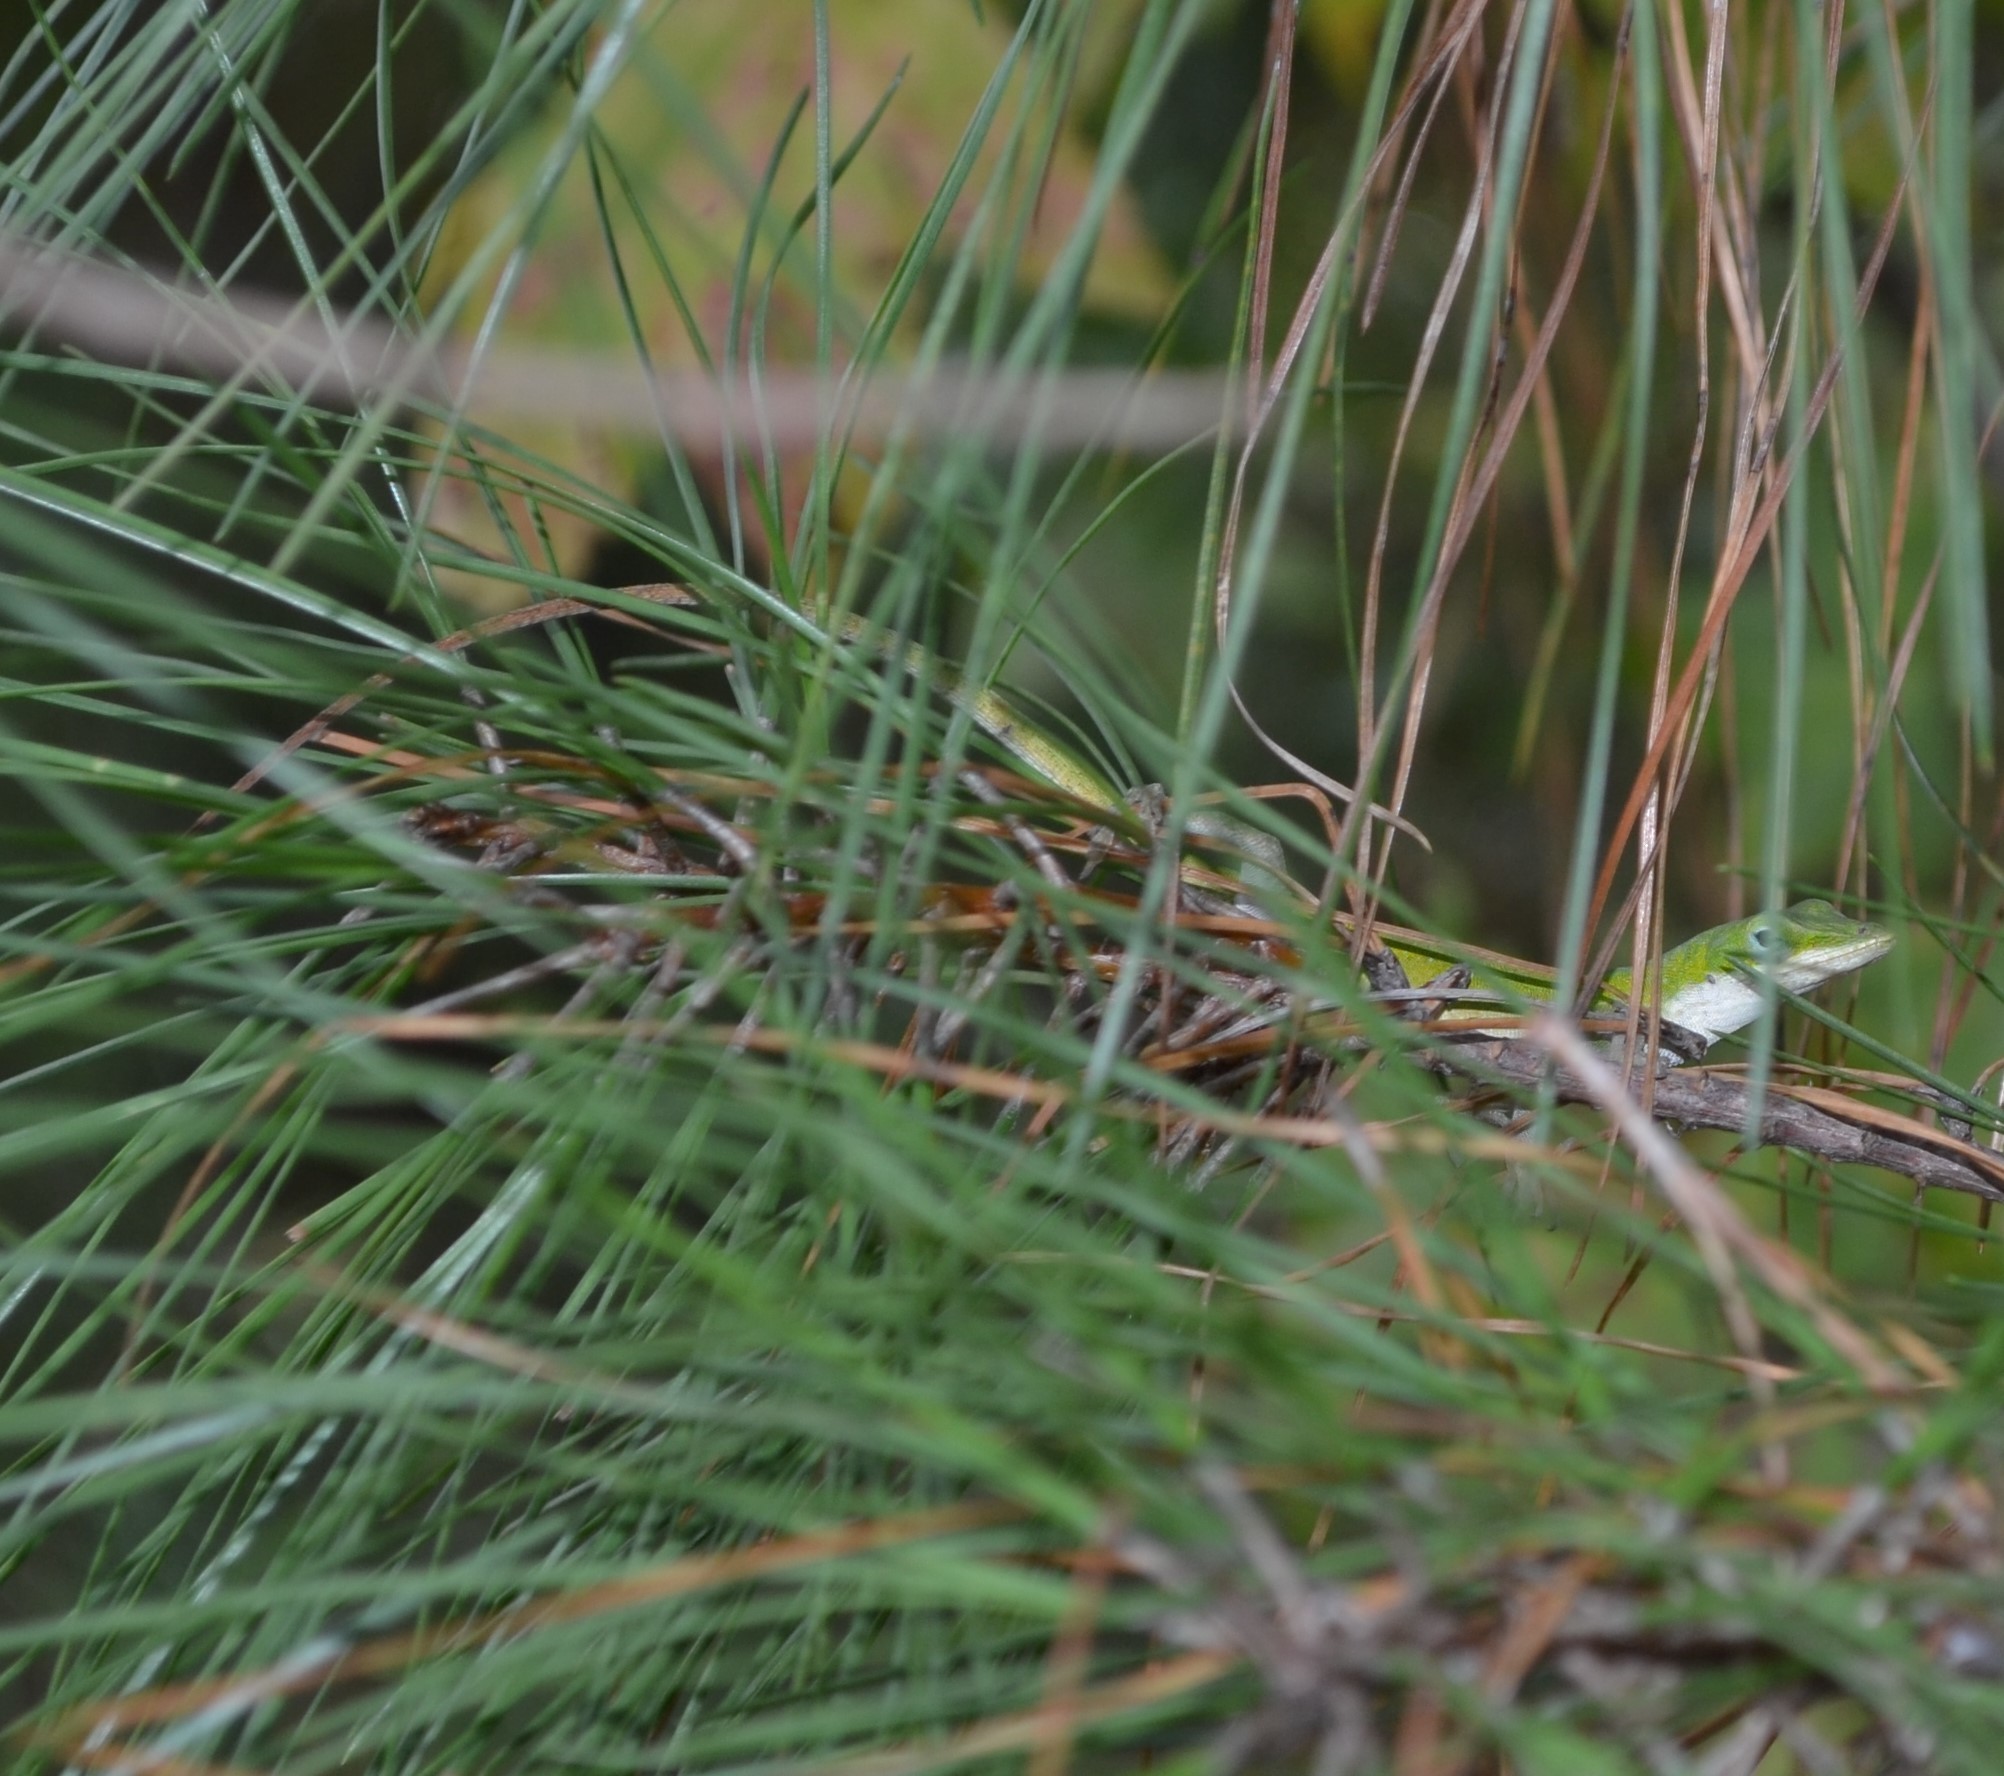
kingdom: Animalia
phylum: Chordata
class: Squamata
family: Dactyloidae
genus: Anolis
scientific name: Anolis carolinensis
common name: Green anole
